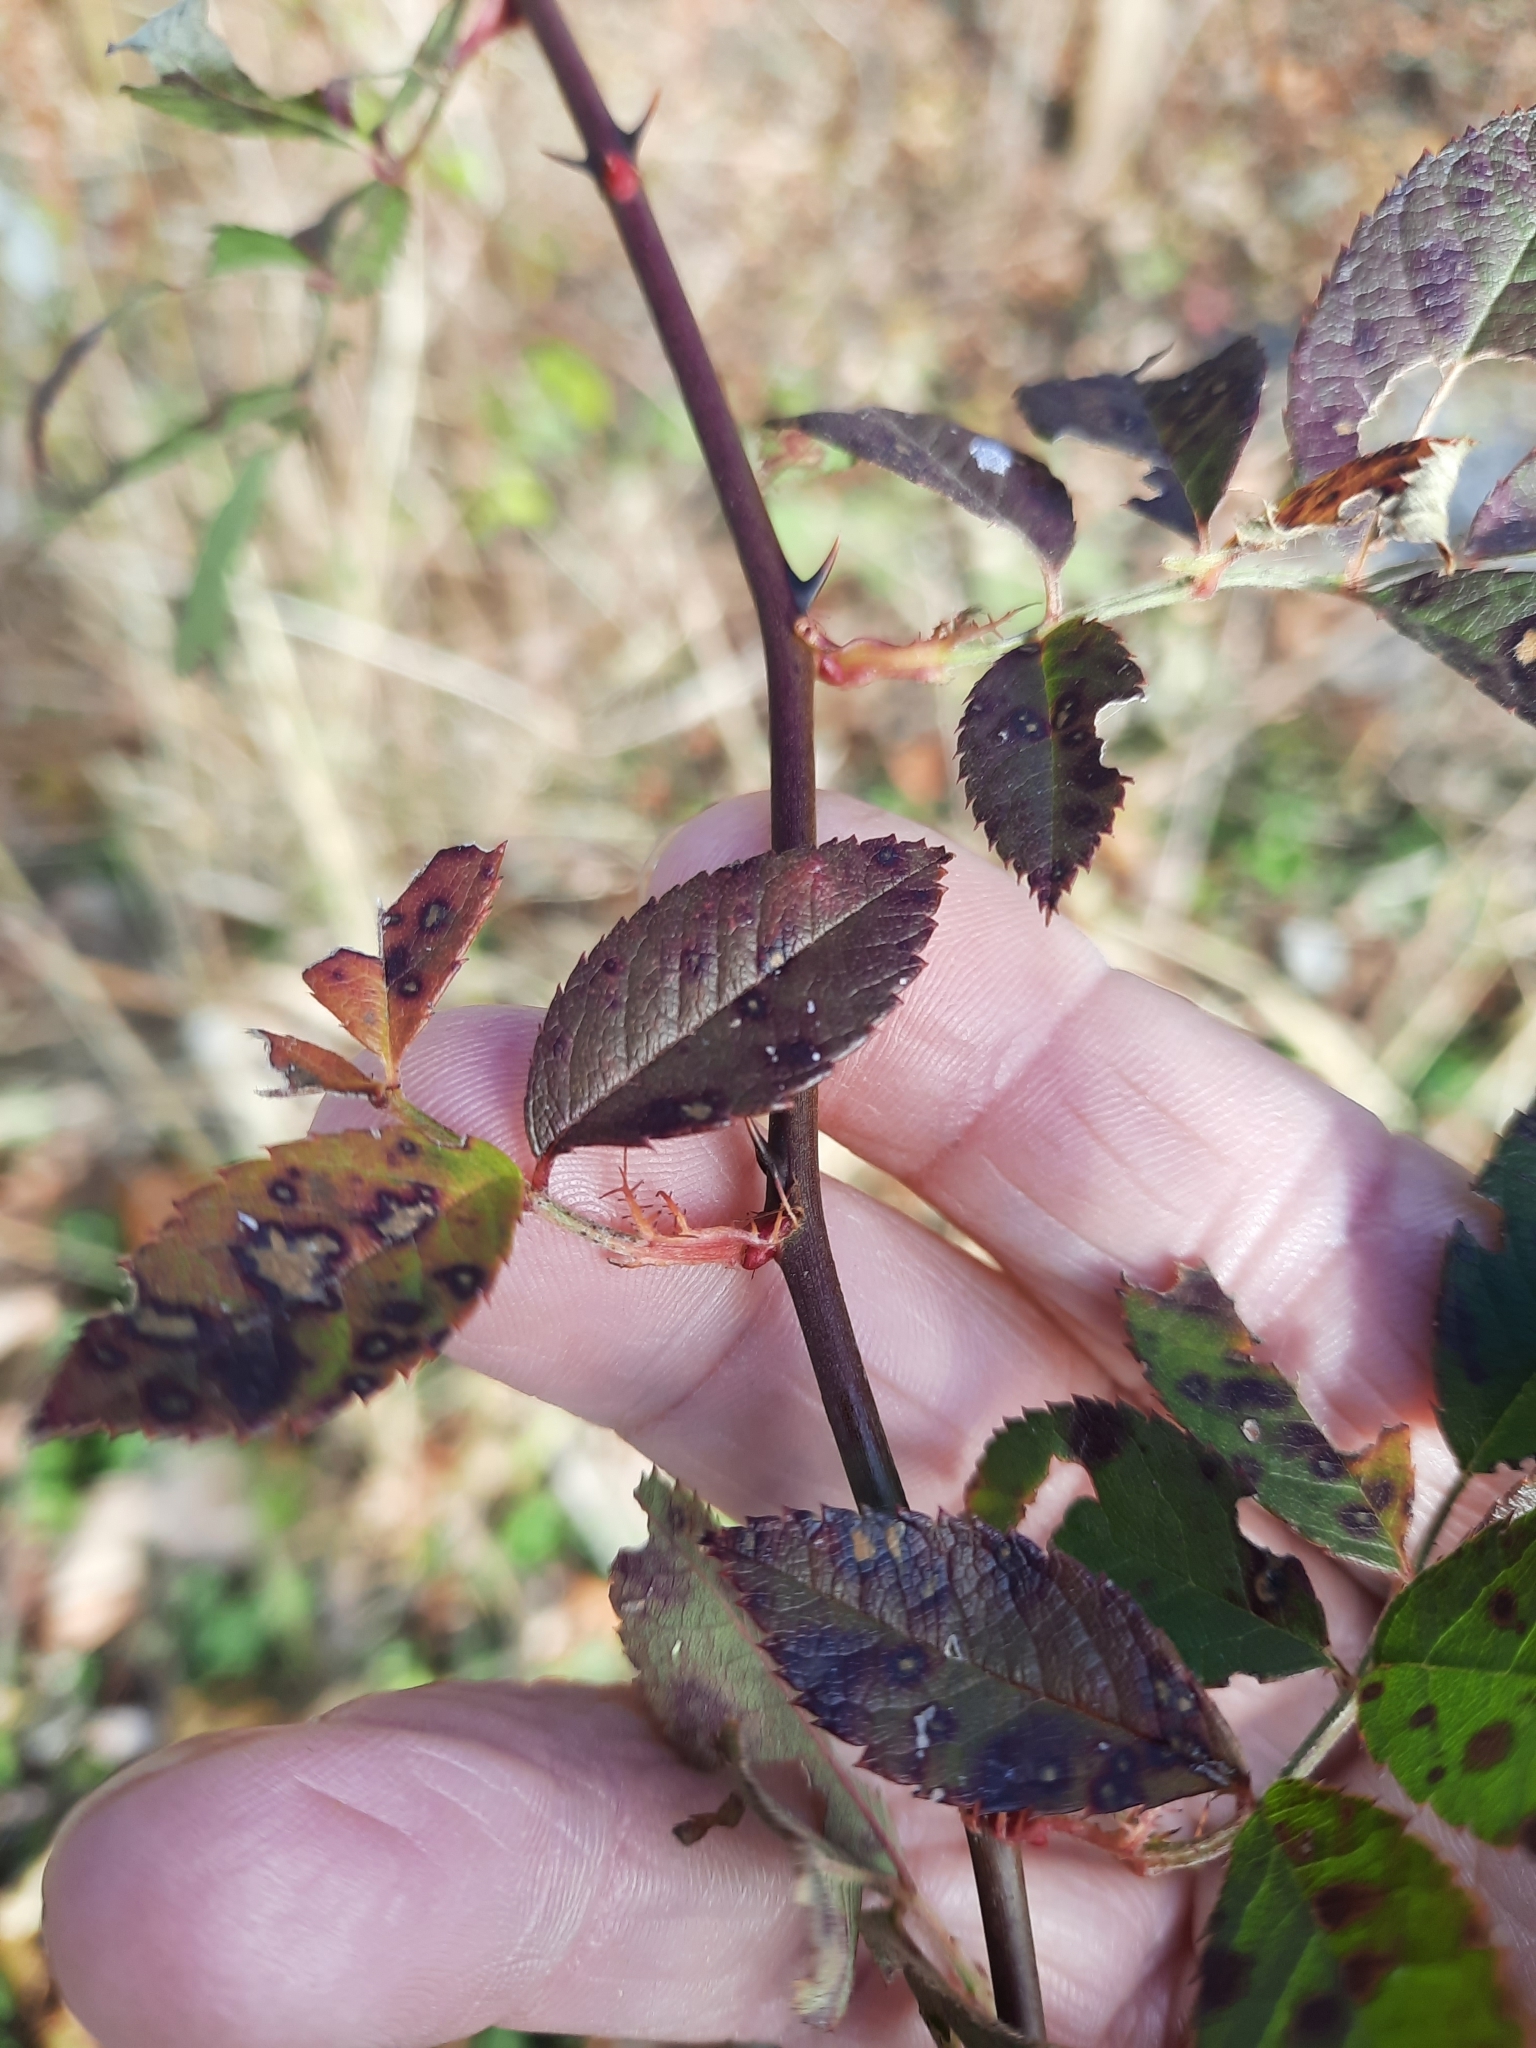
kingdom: Plantae
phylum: Tracheophyta
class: Magnoliopsida
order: Rosales
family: Rosaceae
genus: Rosa
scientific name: Rosa multiflora
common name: Multiflora rose
